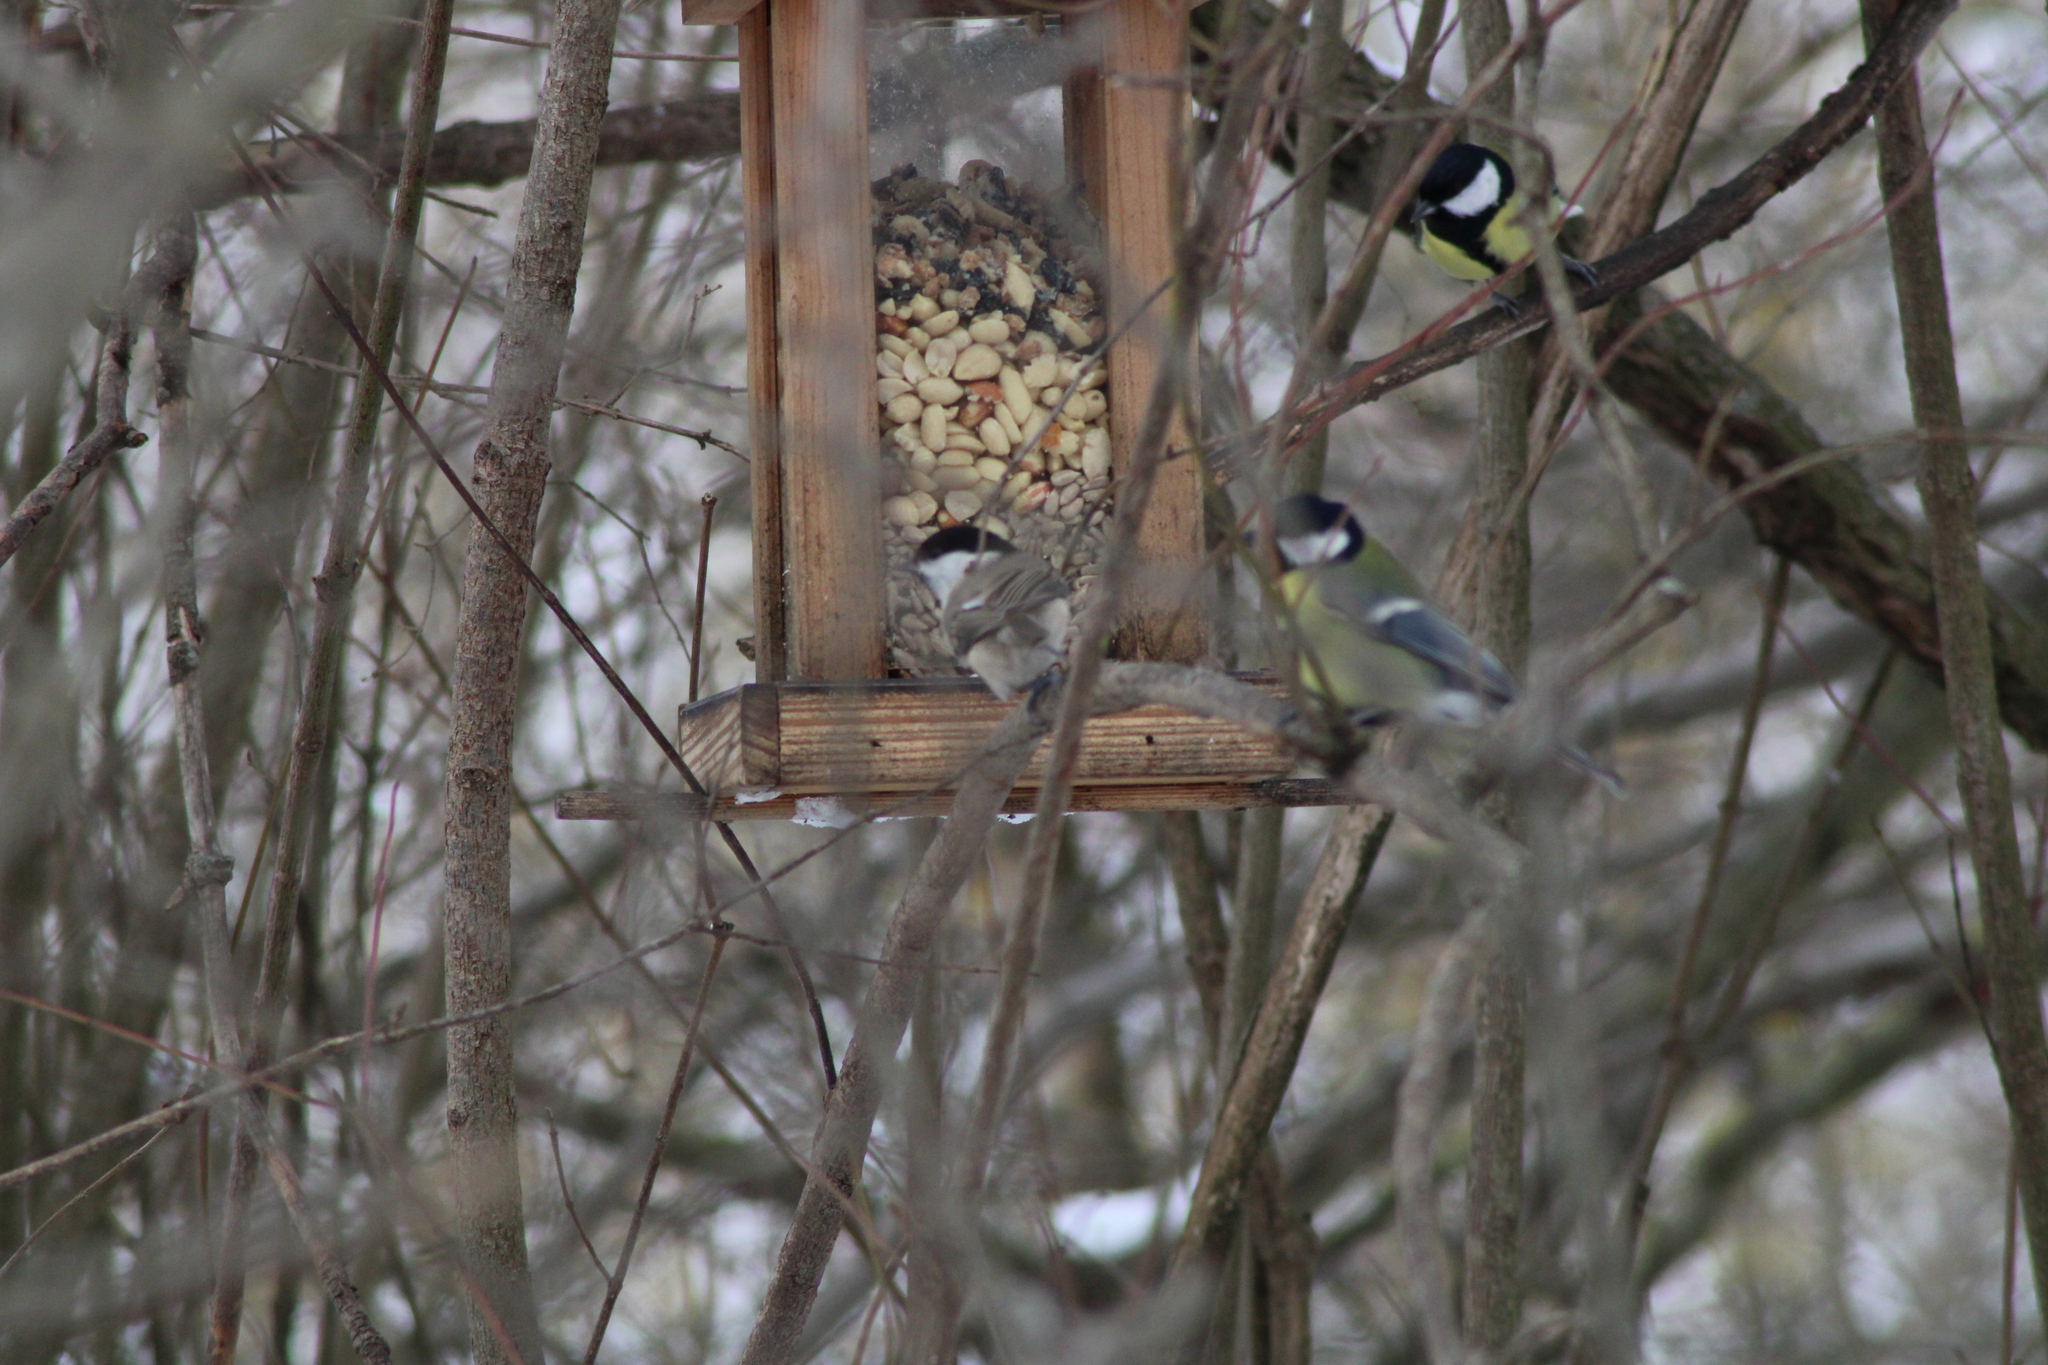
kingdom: Animalia
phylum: Chordata
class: Aves
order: Passeriformes
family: Paridae
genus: Poecile
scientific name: Poecile palustris
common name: Marsh tit
